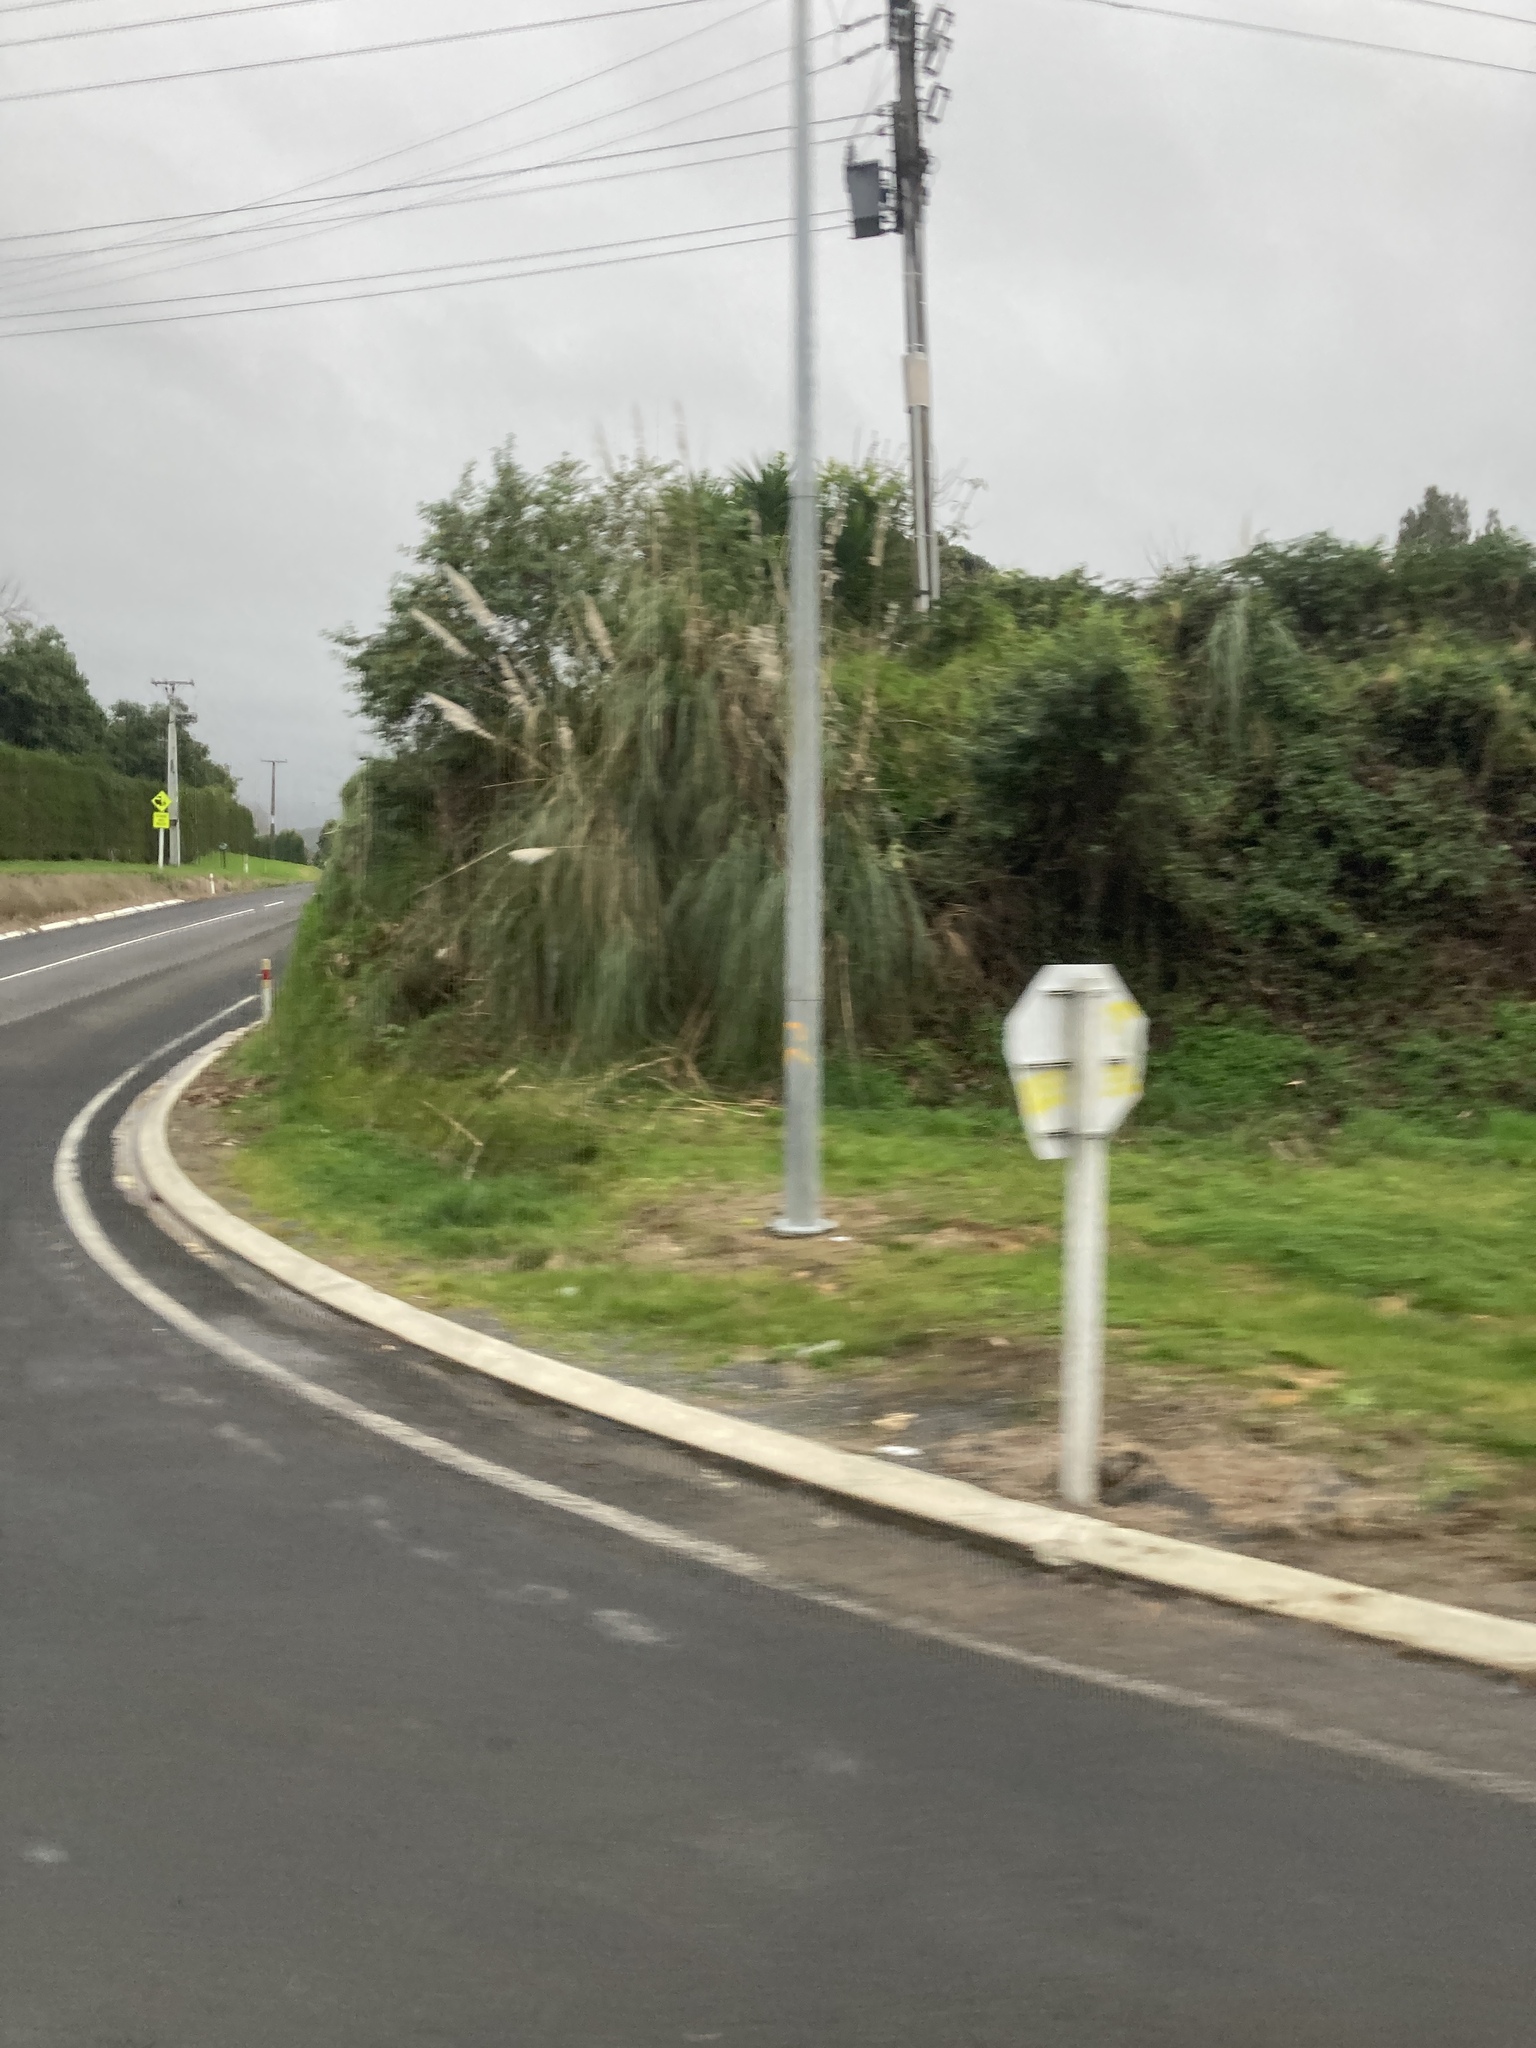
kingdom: Plantae
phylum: Tracheophyta
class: Liliopsida
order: Poales
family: Poaceae
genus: Cortaderia
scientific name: Cortaderia selloana
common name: Uruguayan pampas grass
